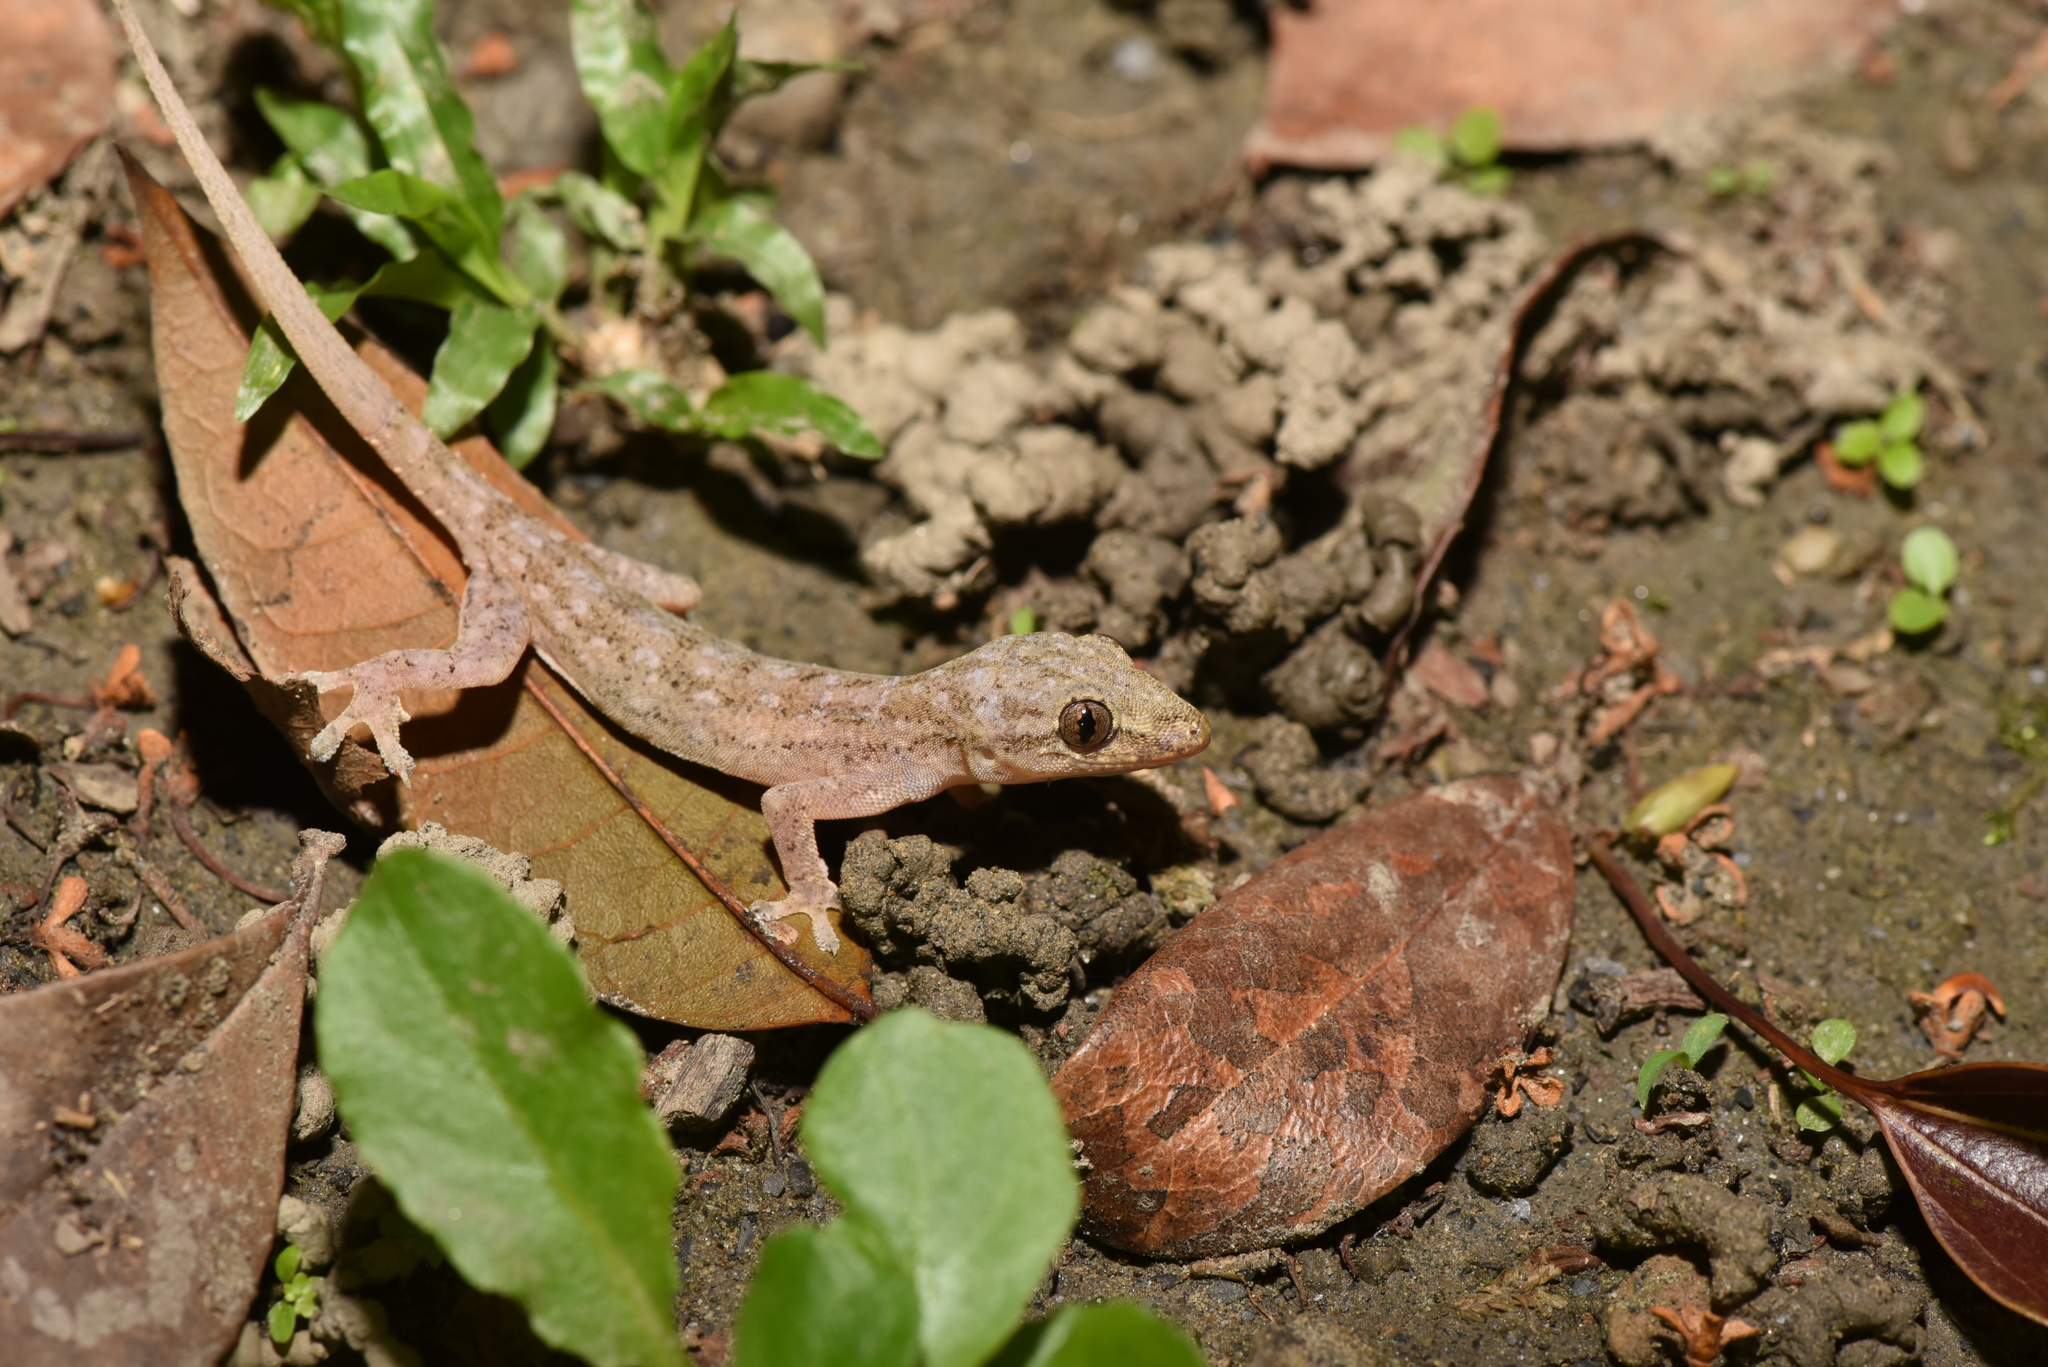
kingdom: Animalia
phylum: Chordata
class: Squamata
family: Gekkonidae
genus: Hemidactylus
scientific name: Hemidactylus frenatus
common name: Common house gecko
